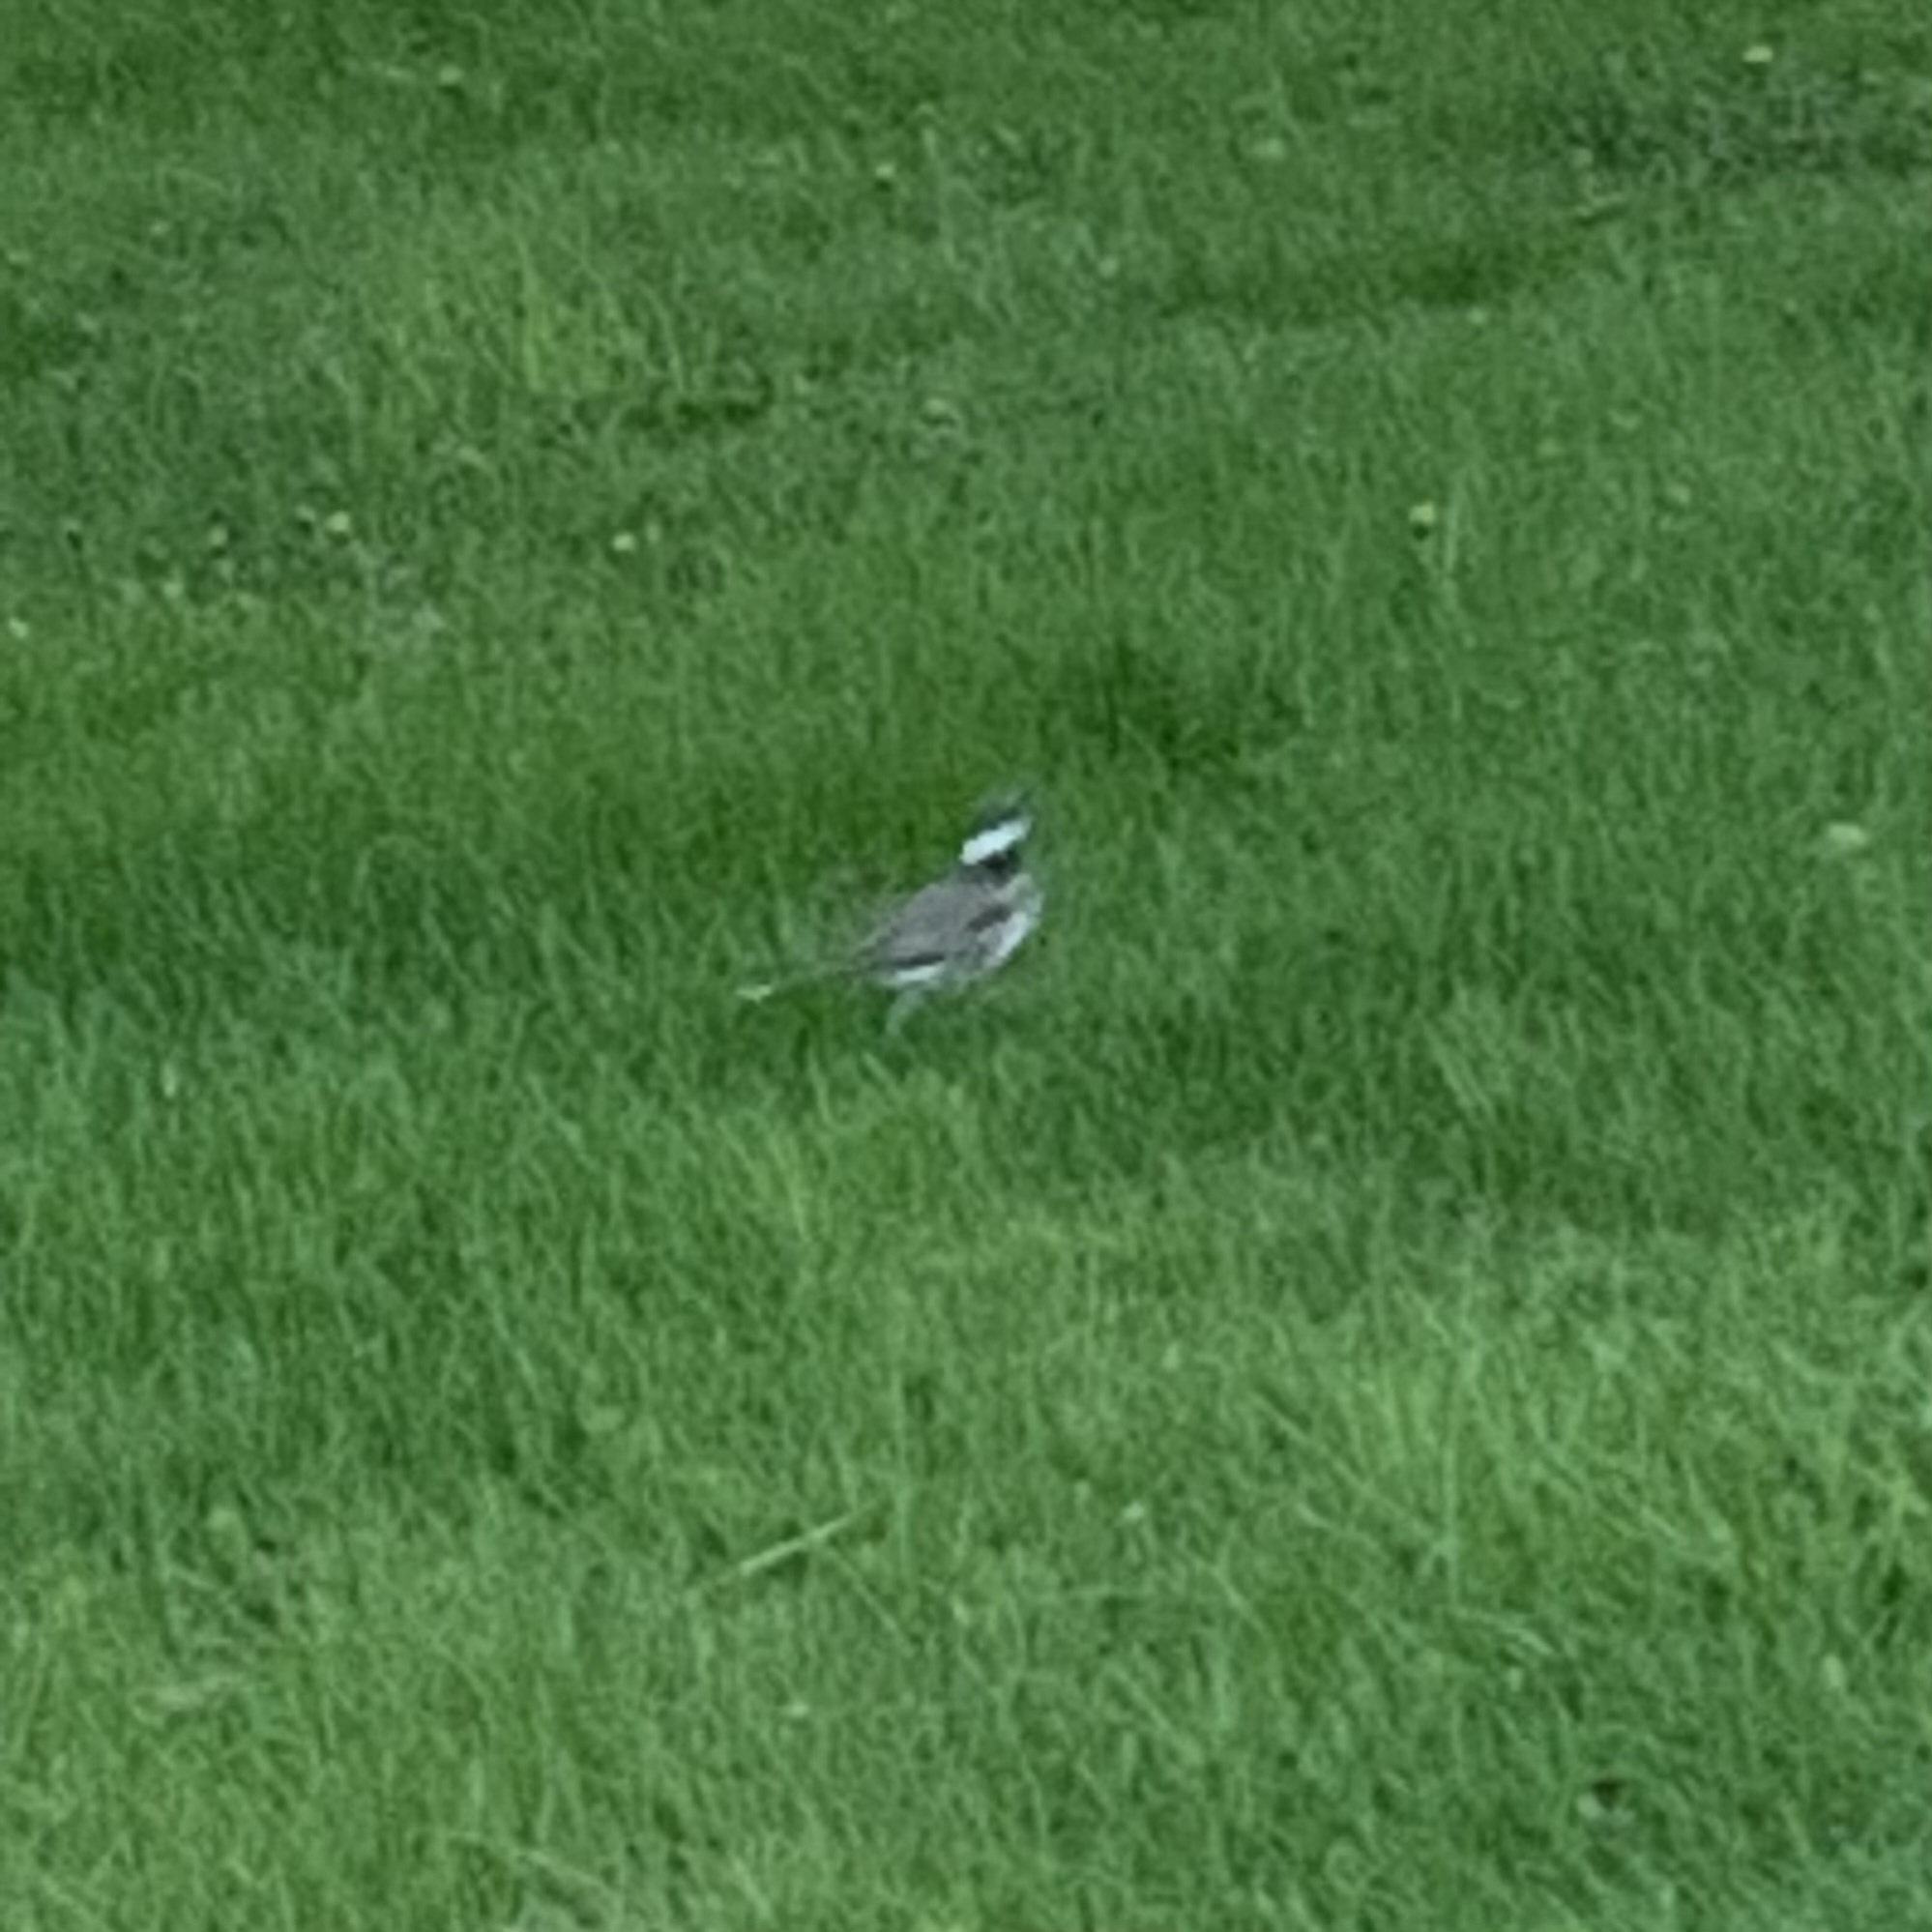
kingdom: Animalia
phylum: Chordata
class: Aves
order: Charadriiformes
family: Charadriidae
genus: Charadrius
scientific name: Charadrius vociferus
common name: Killdeer
